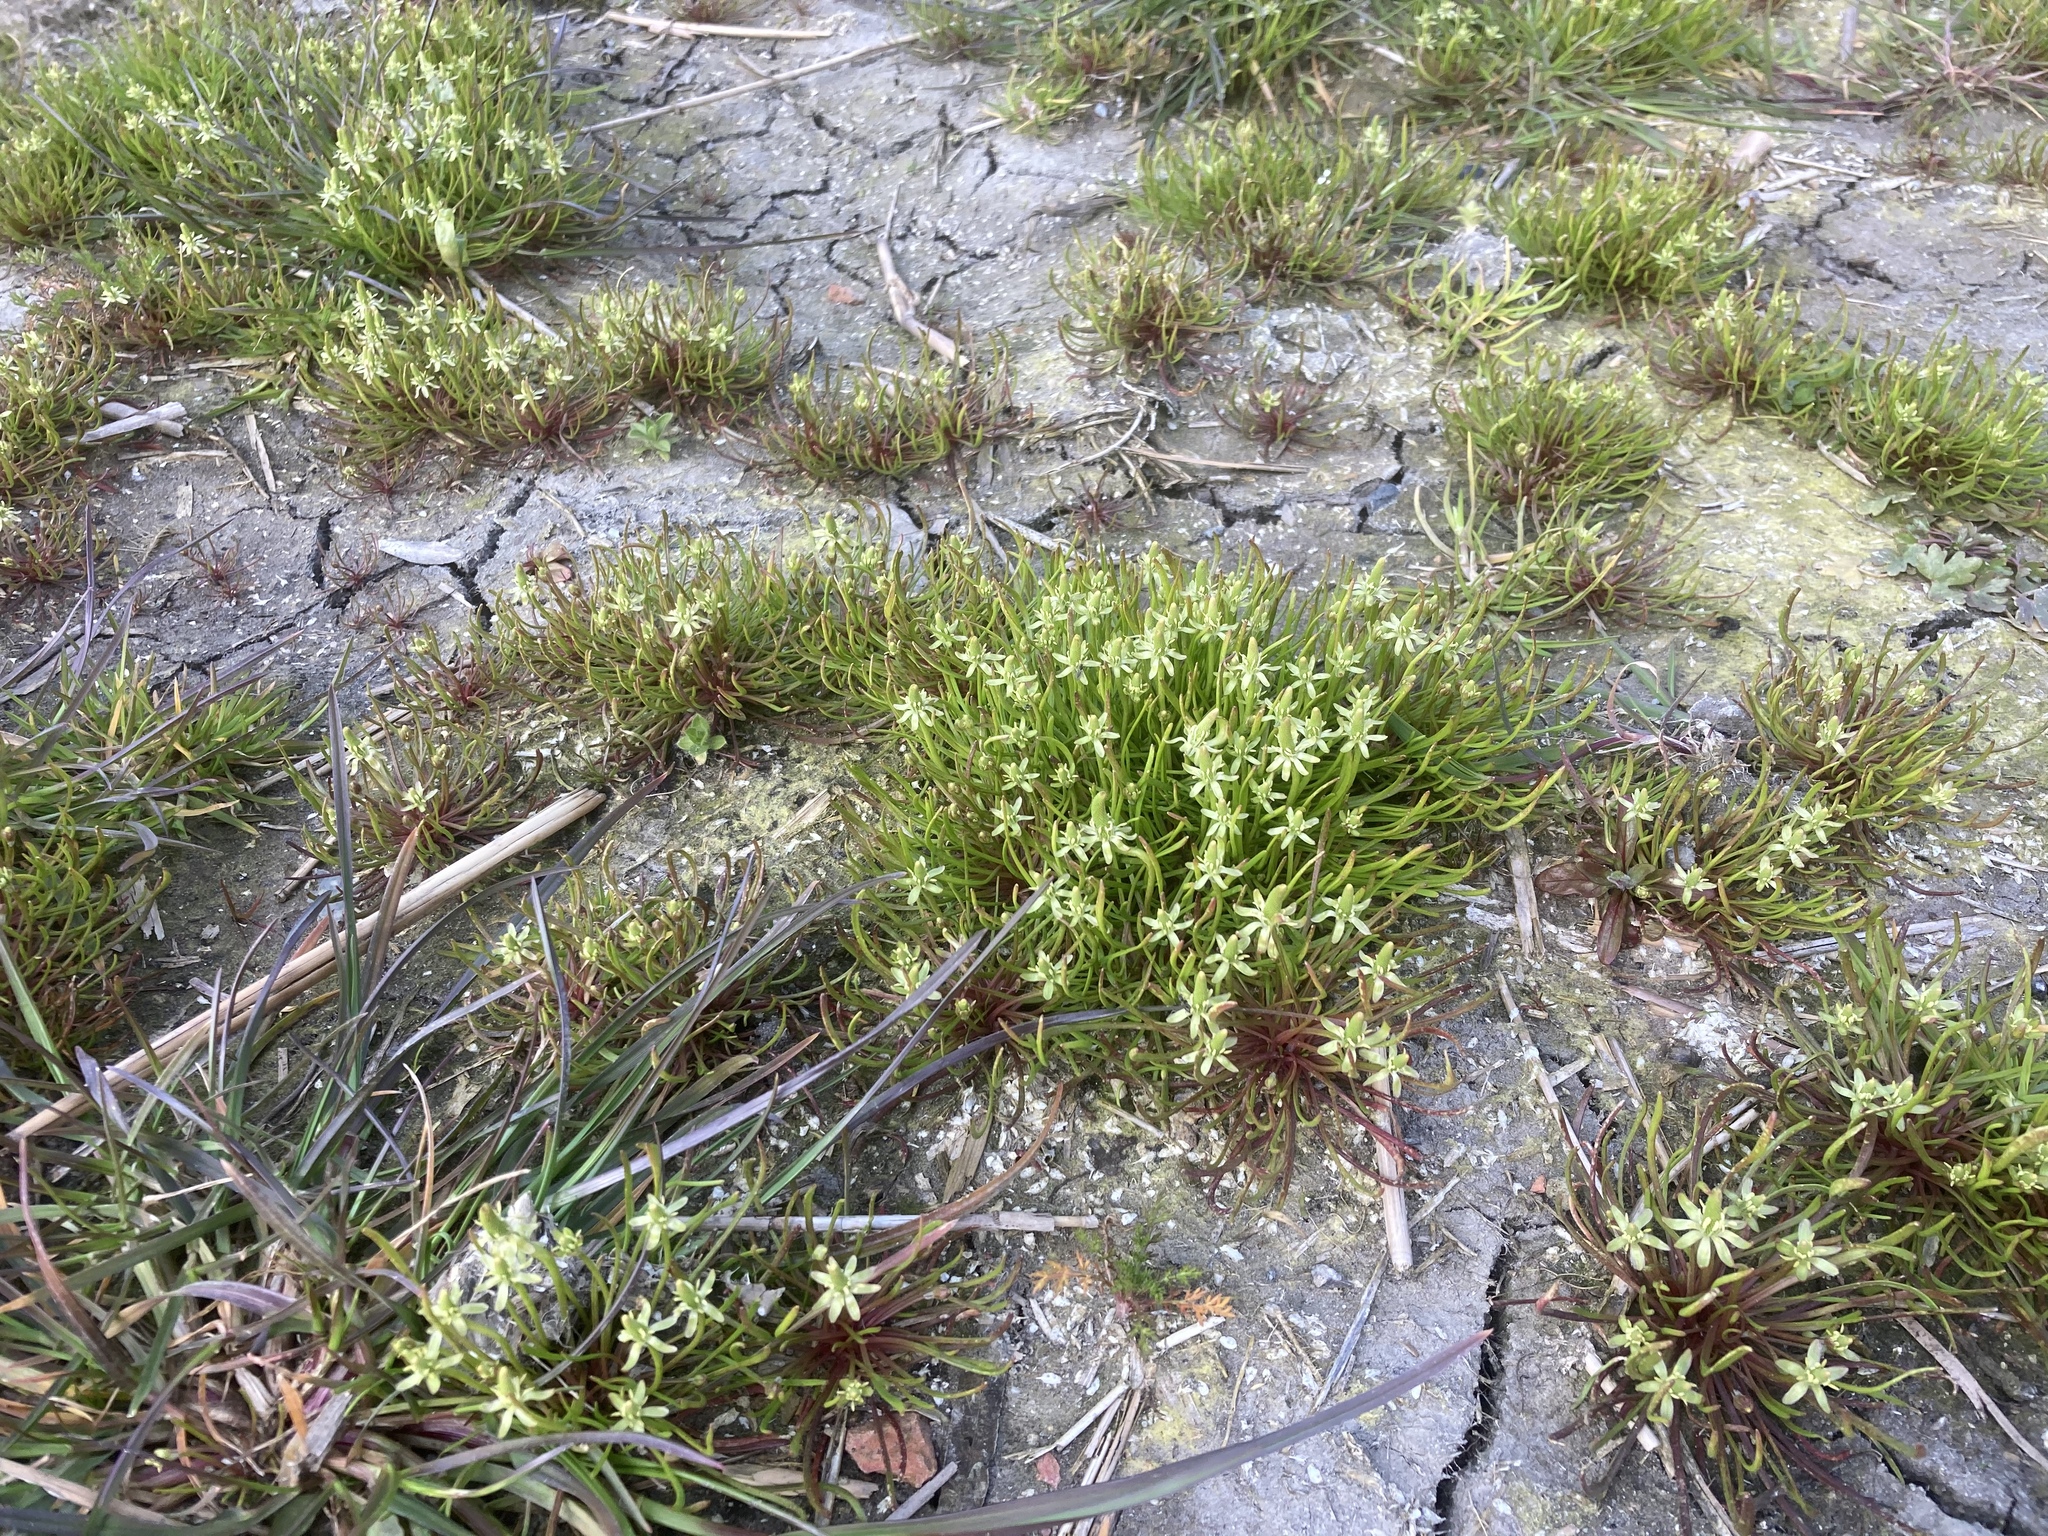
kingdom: Plantae
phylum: Tracheophyta
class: Magnoliopsida
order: Ranunculales
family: Ranunculaceae
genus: Myosurus
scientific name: Myosurus minimus
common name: Mousetail
